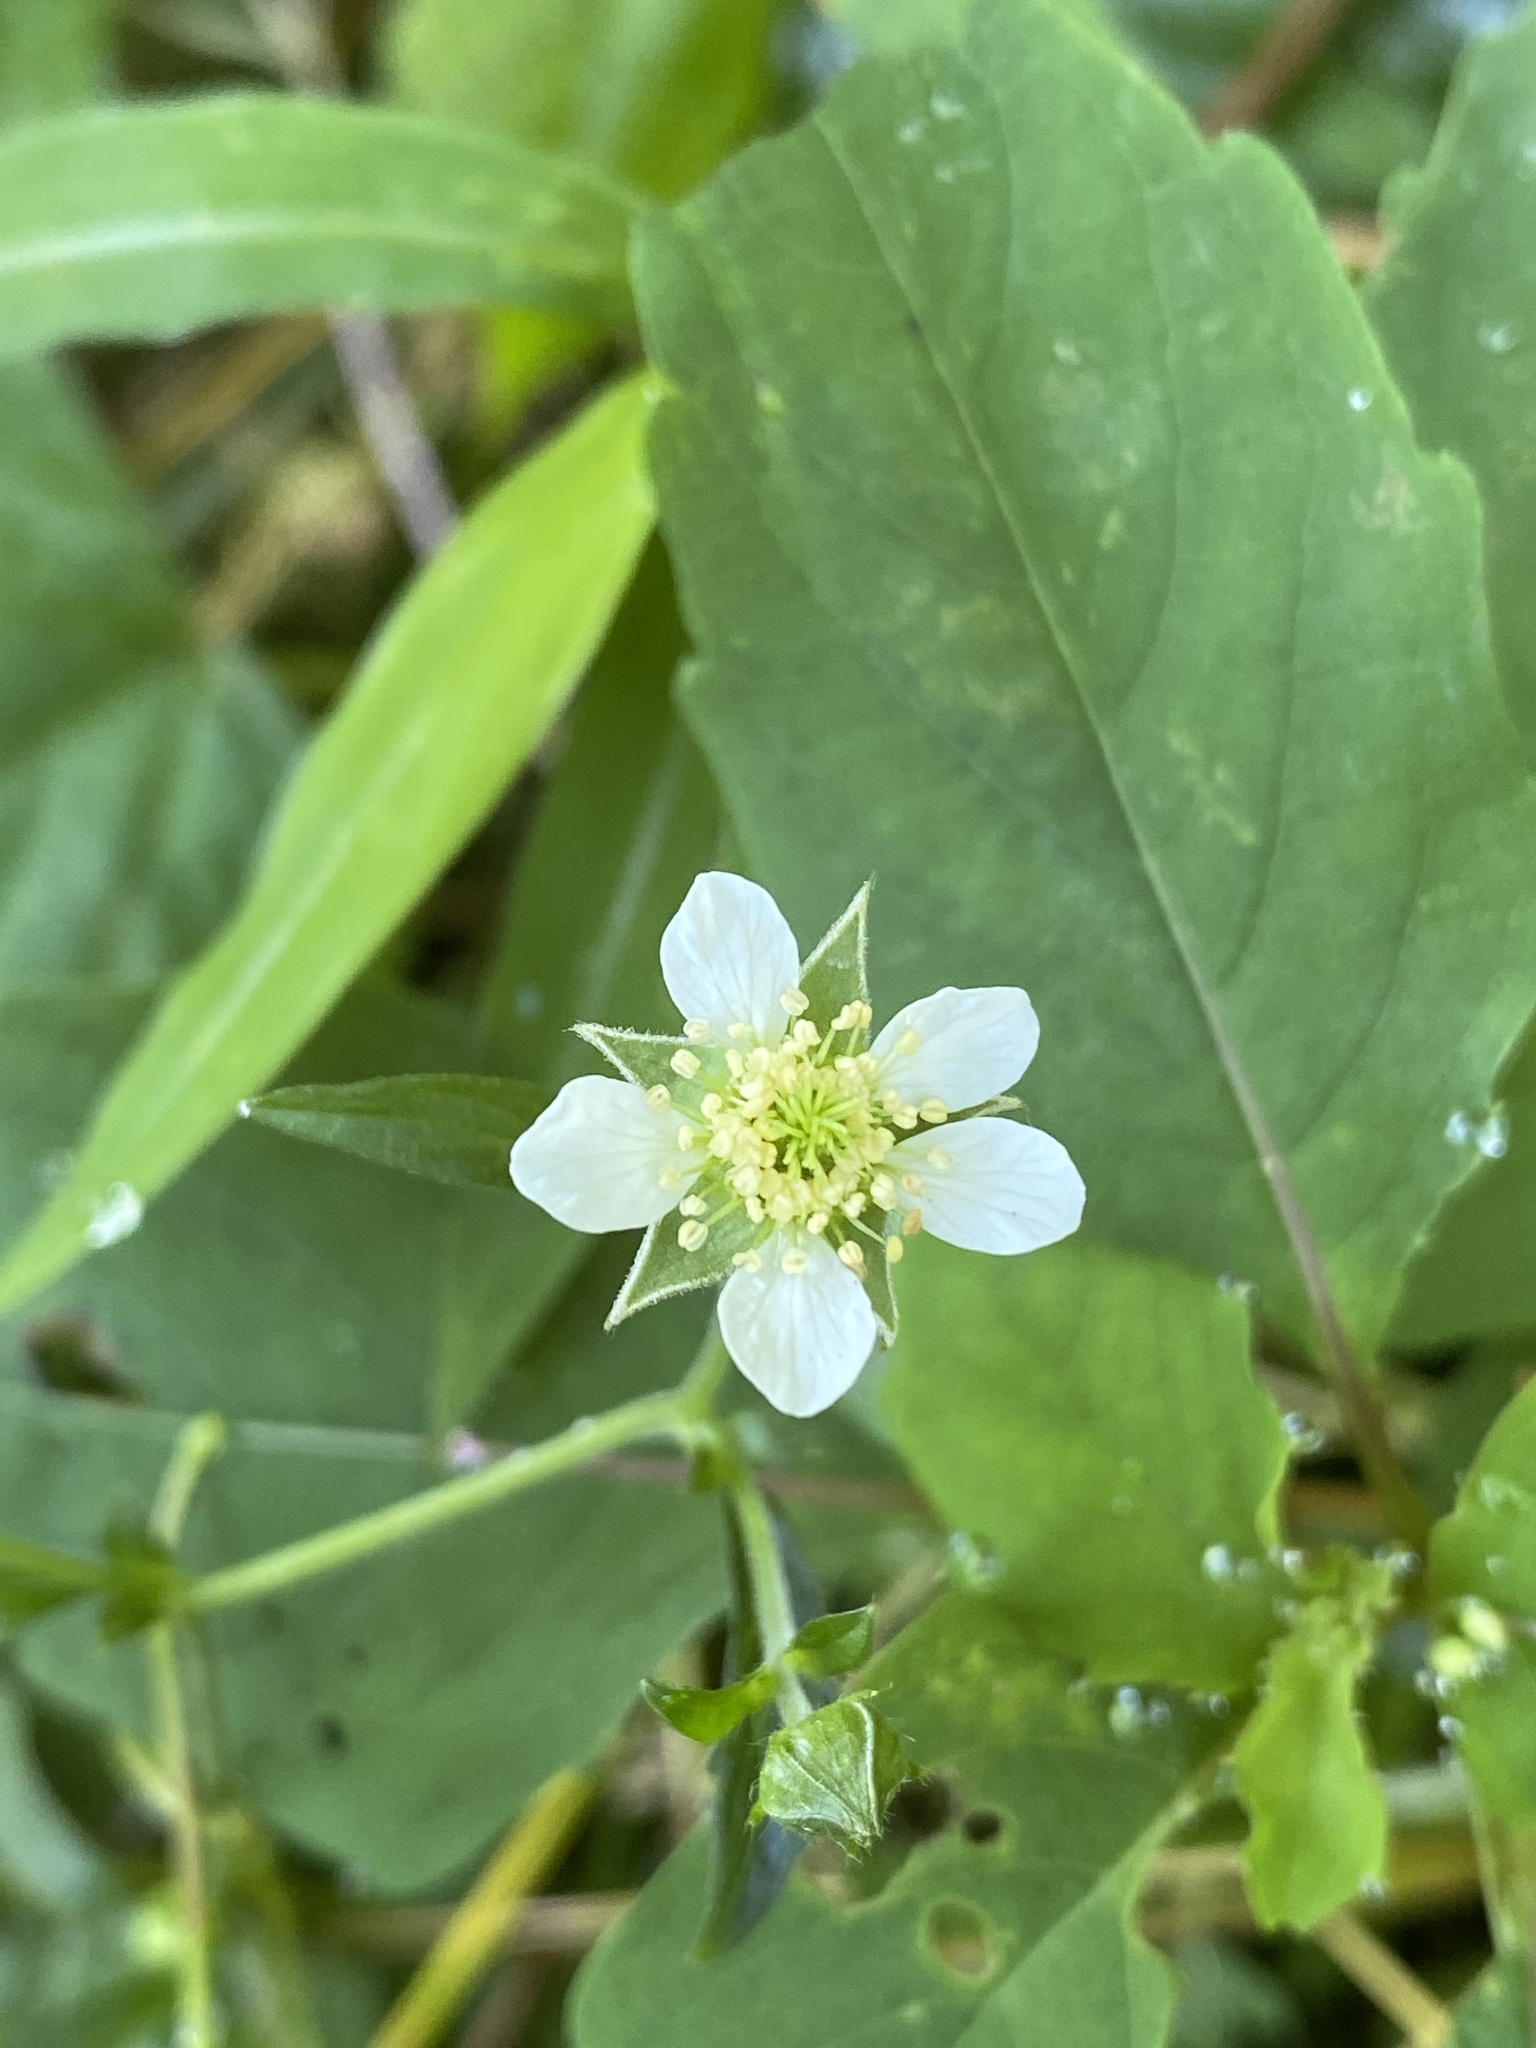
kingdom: Plantae
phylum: Tracheophyta
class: Magnoliopsida
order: Rosales
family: Rosaceae
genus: Geum
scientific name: Geum canadense
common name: White avens
